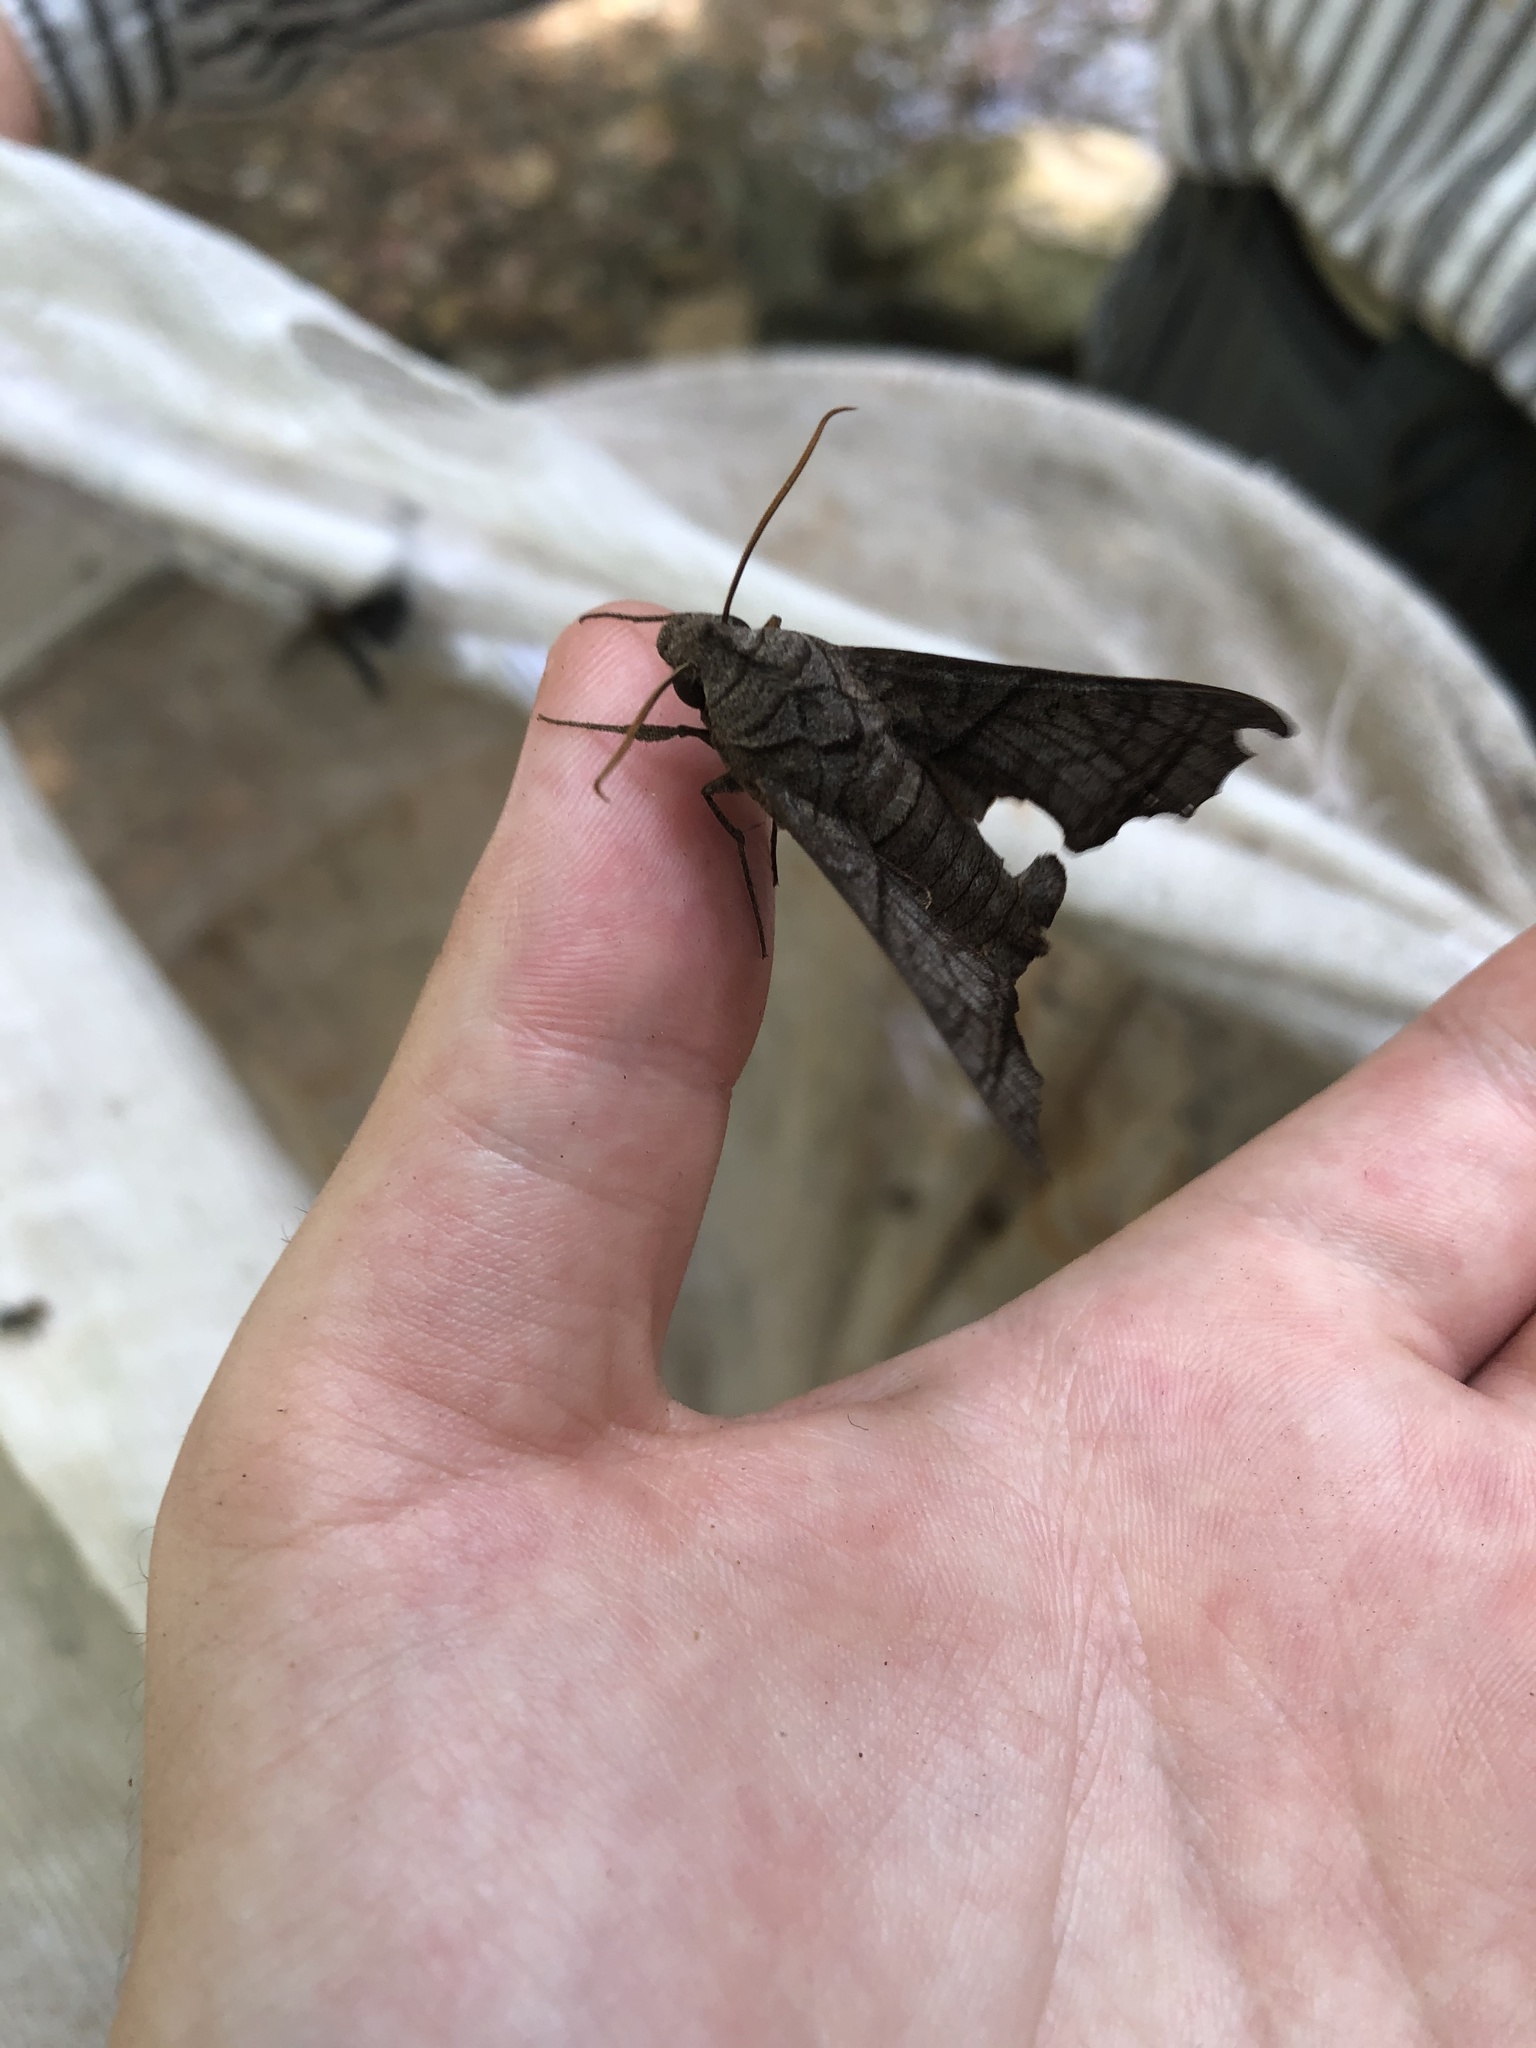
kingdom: Animalia
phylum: Arthropoda
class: Insecta
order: Lepidoptera
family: Sphingidae
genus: Perigonia
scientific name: Perigonia grisea
